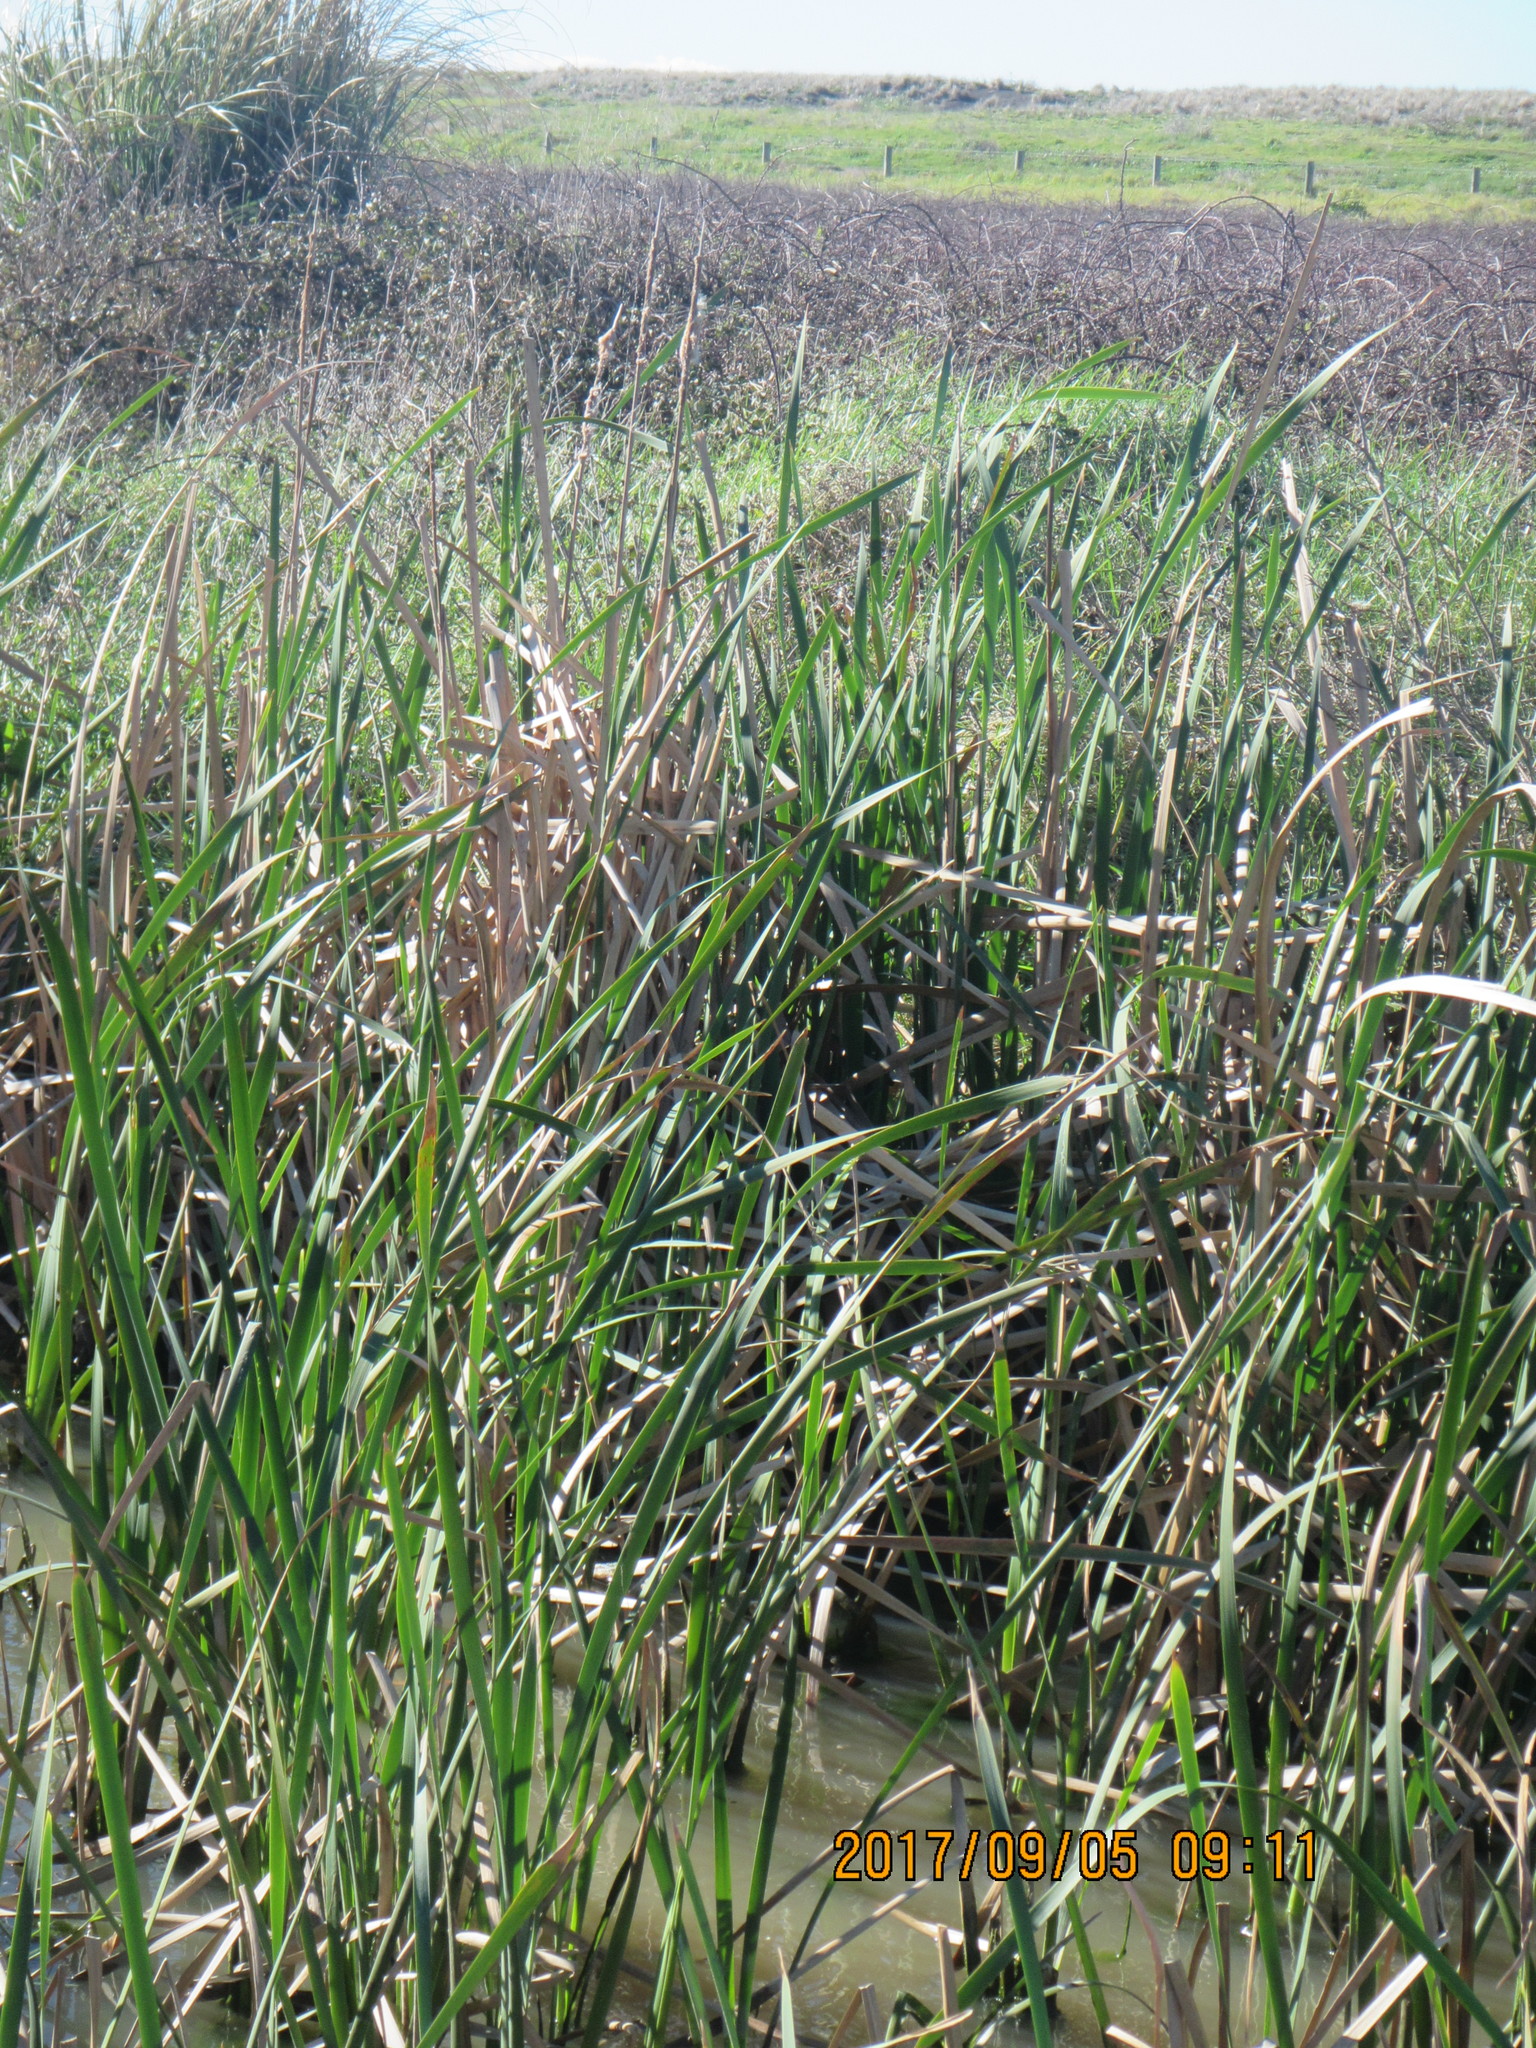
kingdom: Plantae
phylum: Tracheophyta
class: Liliopsida
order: Poales
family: Typhaceae
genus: Typha
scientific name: Typha orientalis
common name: Bullrush
